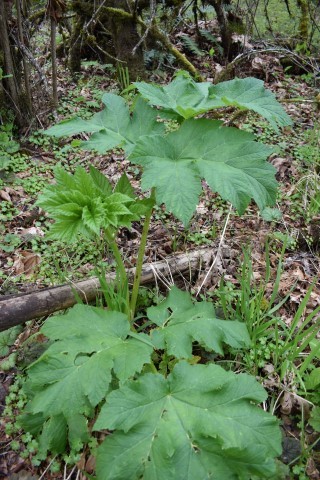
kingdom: Plantae
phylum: Tracheophyta
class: Magnoliopsida
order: Apiales
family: Apiaceae
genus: Heracleum
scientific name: Heracleum maximum
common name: American cow parsnip
